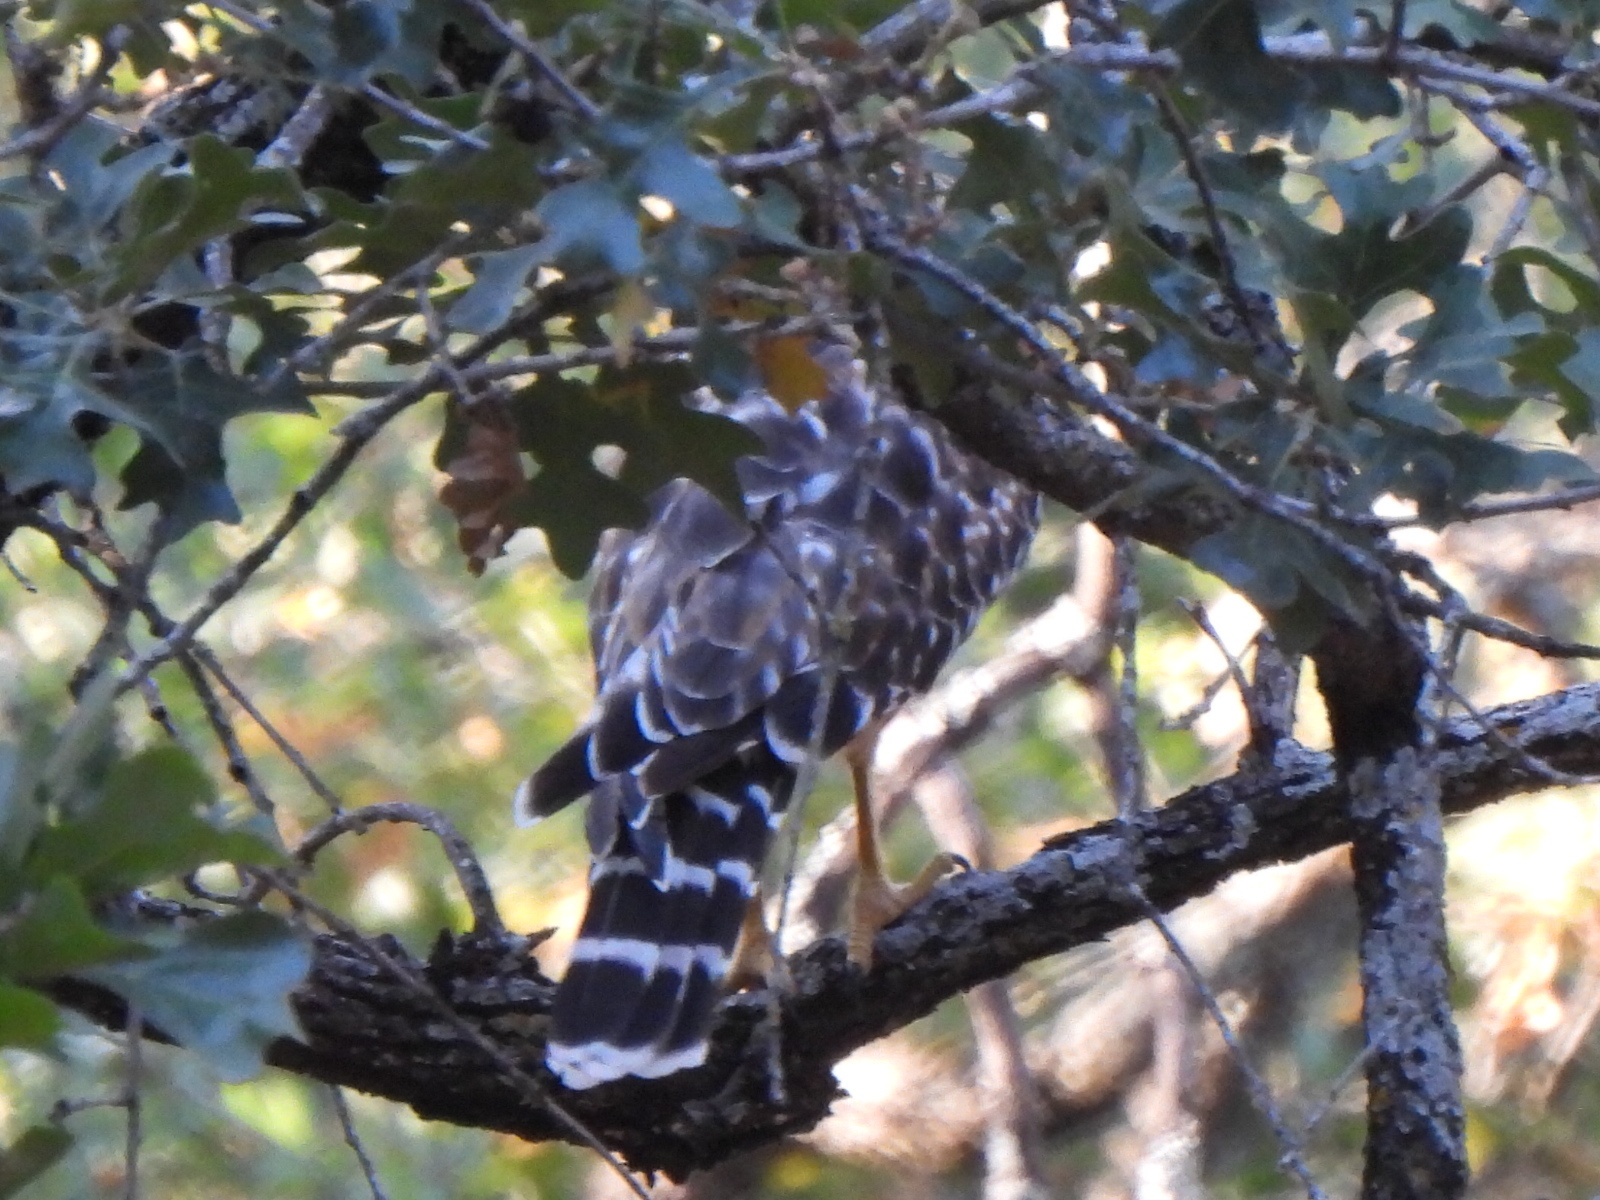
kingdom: Animalia
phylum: Chordata
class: Aves
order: Accipitriformes
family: Accipitridae
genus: Buteo
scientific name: Buteo lineatus
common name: Red-shouldered hawk
